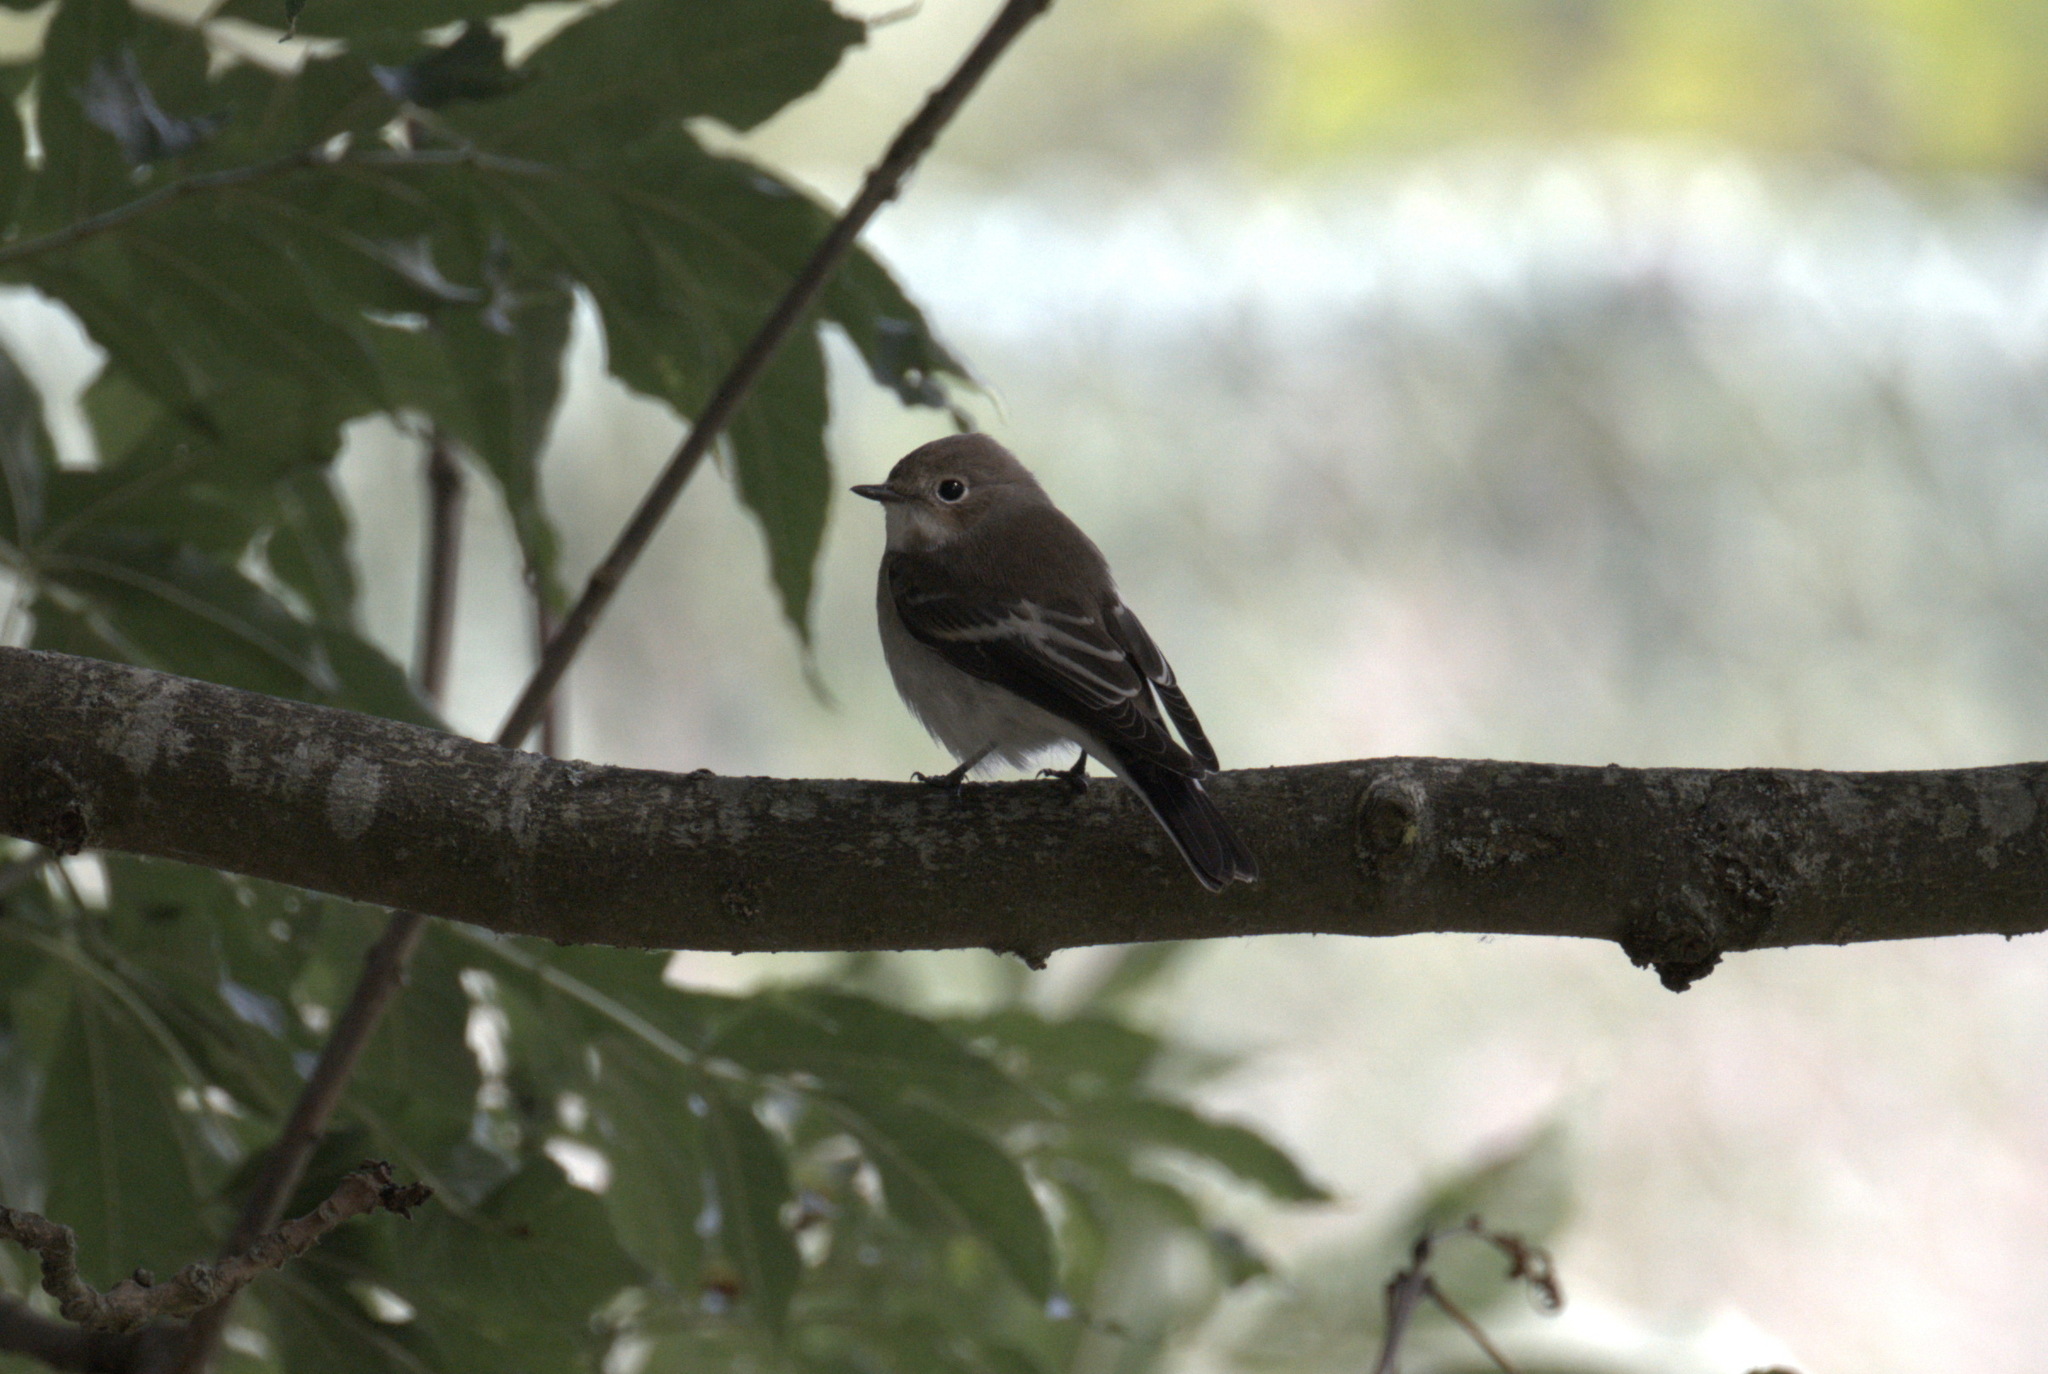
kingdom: Animalia
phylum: Chordata
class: Aves
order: Passeriformes
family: Muscicapidae
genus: Ficedula
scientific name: Ficedula hypoleuca
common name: European pied flycatcher
